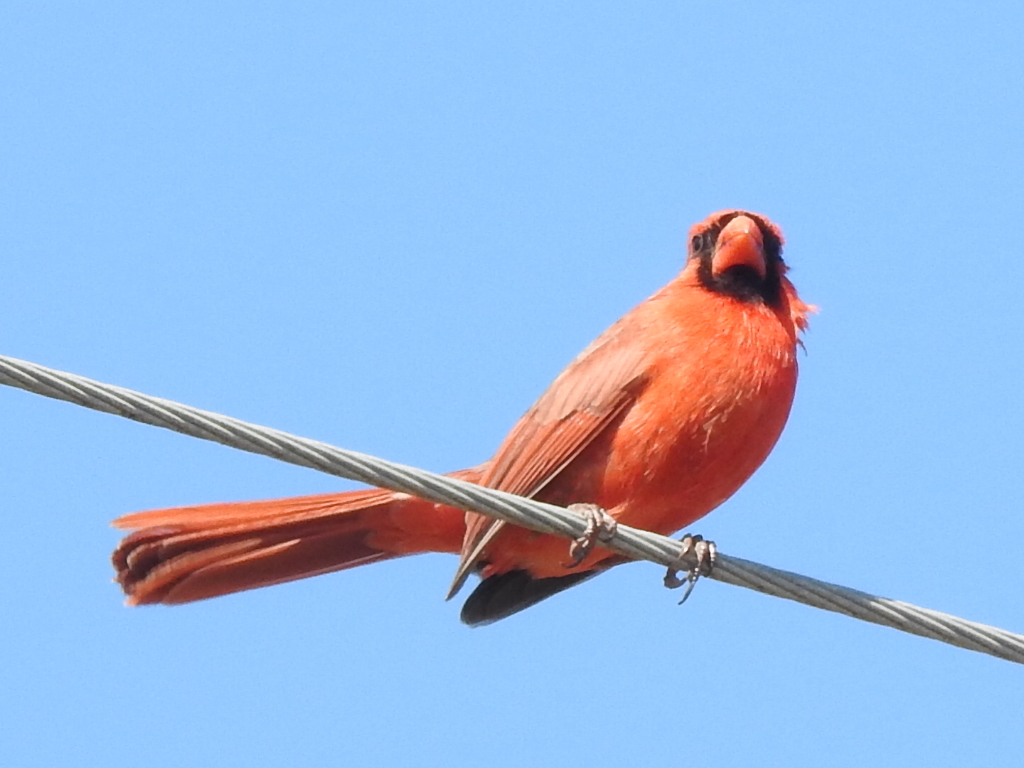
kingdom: Animalia
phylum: Chordata
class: Aves
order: Passeriformes
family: Cardinalidae
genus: Cardinalis
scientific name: Cardinalis cardinalis
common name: Northern cardinal
